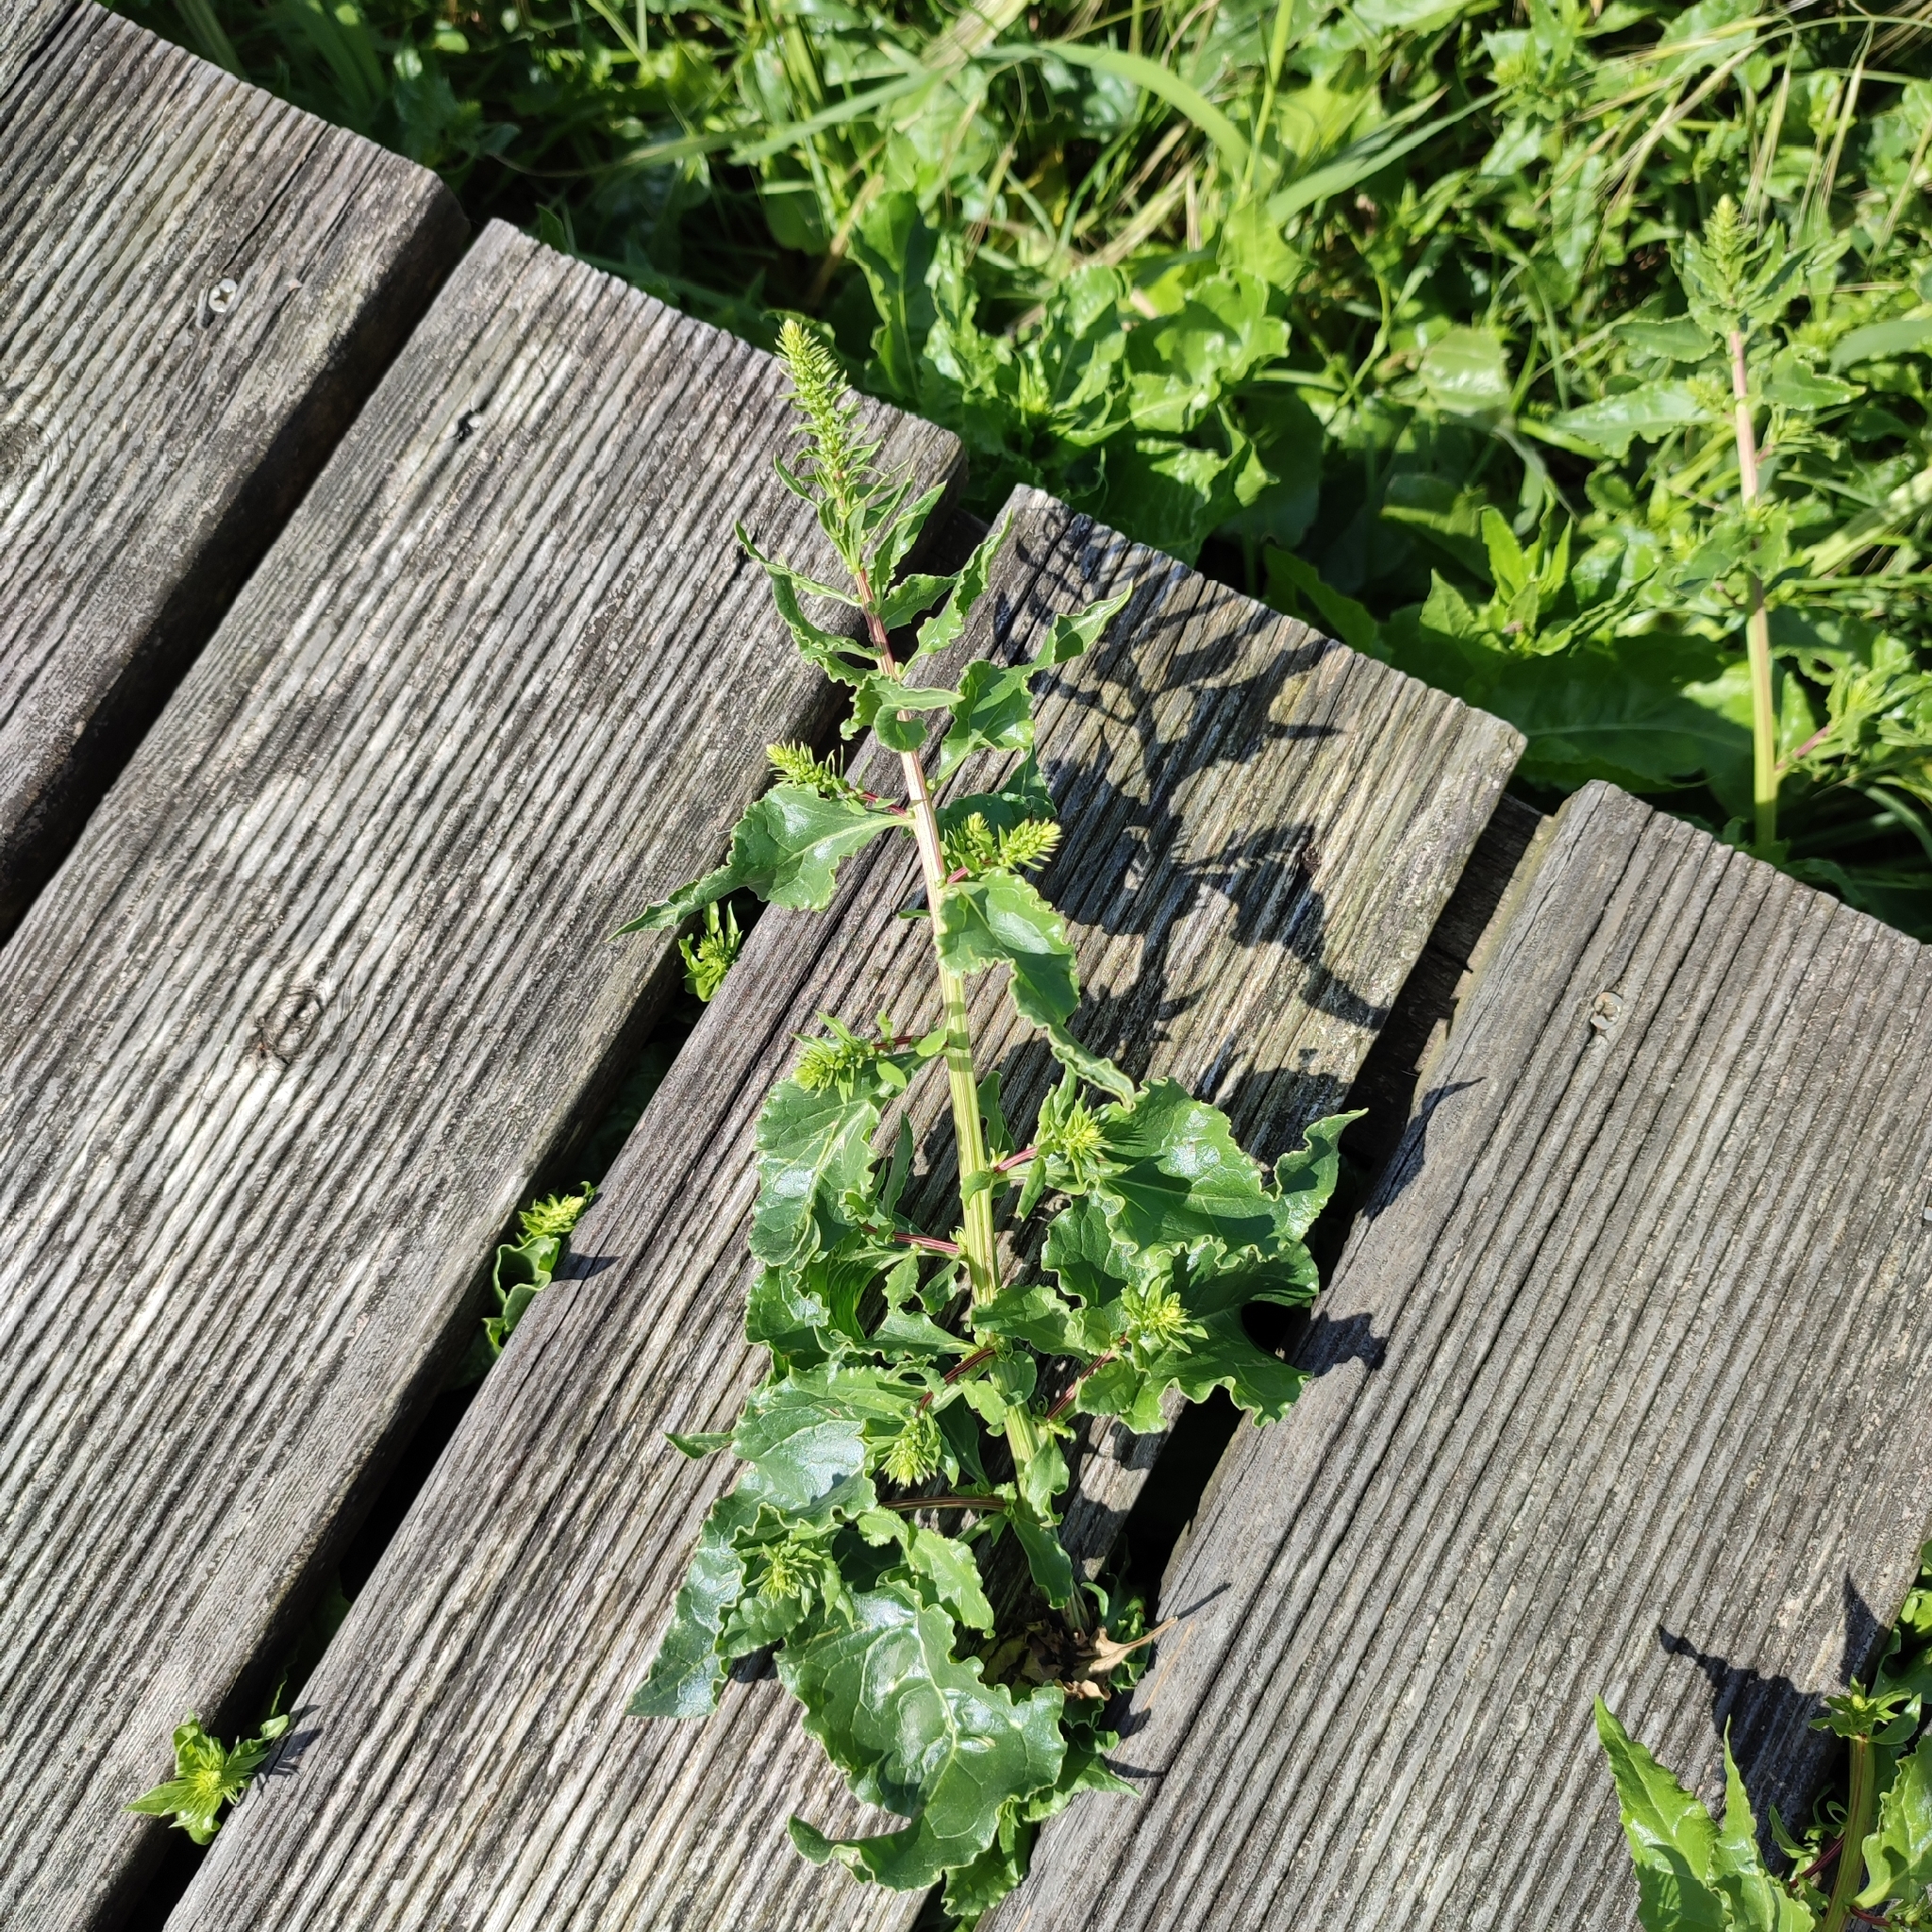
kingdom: Plantae
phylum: Tracheophyta
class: Magnoliopsida
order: Caryophyllales
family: Amaranthaceae
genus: Beta
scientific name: Beta vulgaris
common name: Beet
